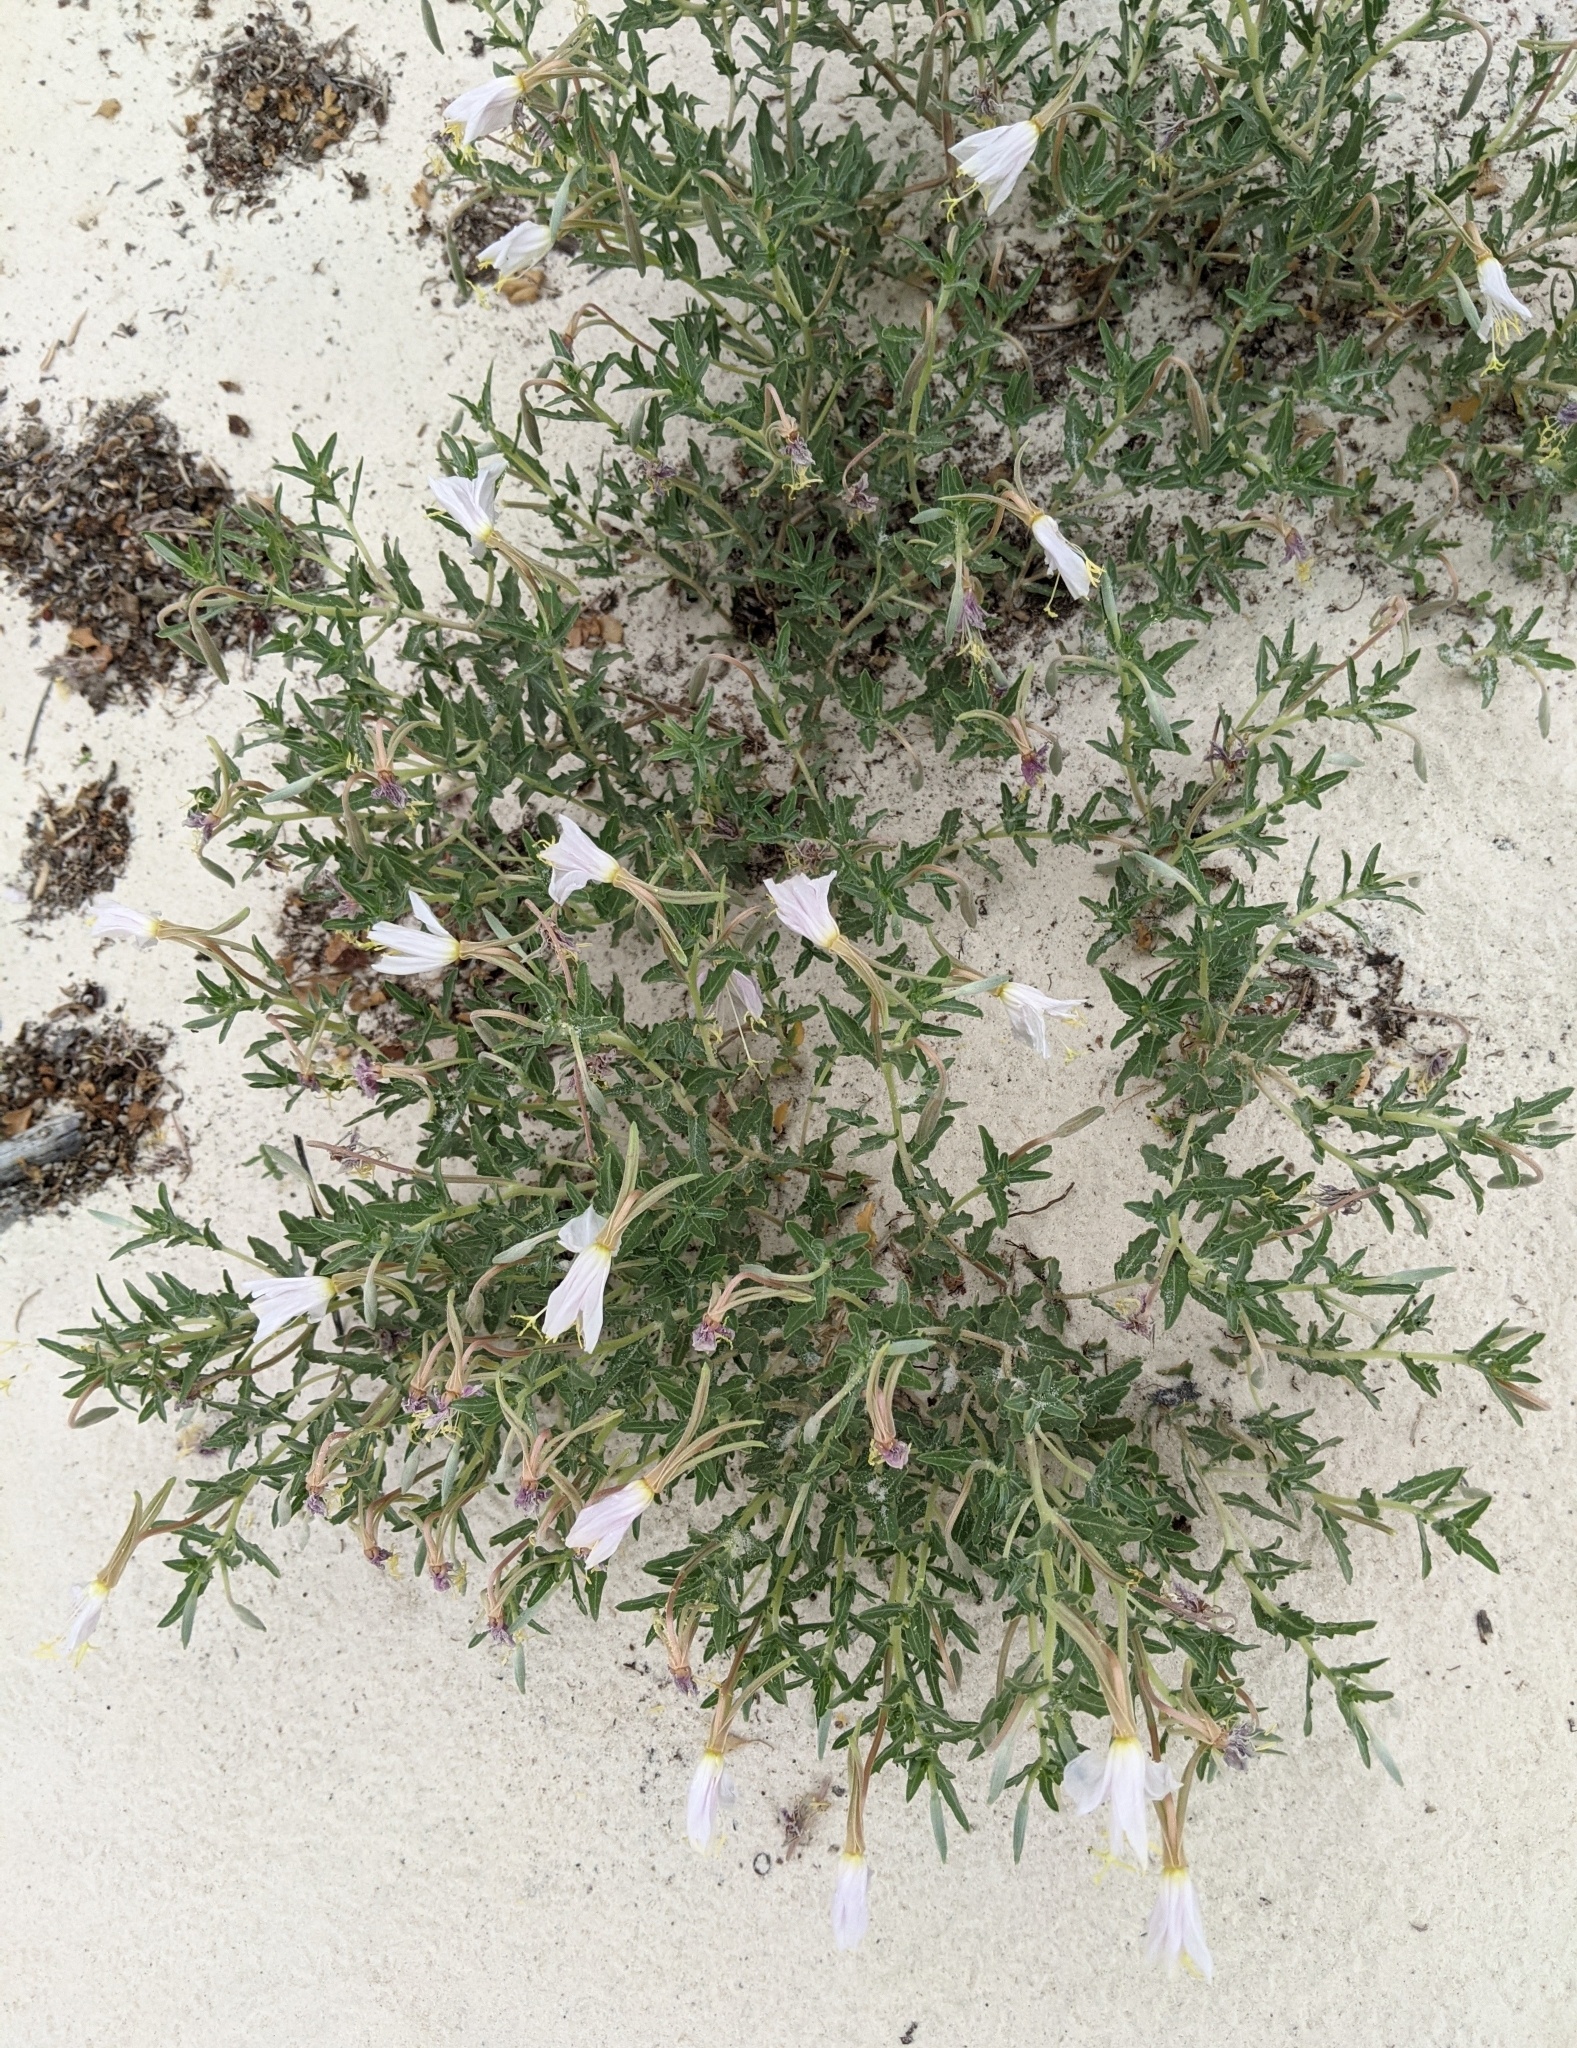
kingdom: Plantae
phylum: Tracheophyta
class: Magnoliopsida
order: Myrtales
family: Onagraceae
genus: Oenothera
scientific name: Oenothera pallida
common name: Pale evening-primrose
